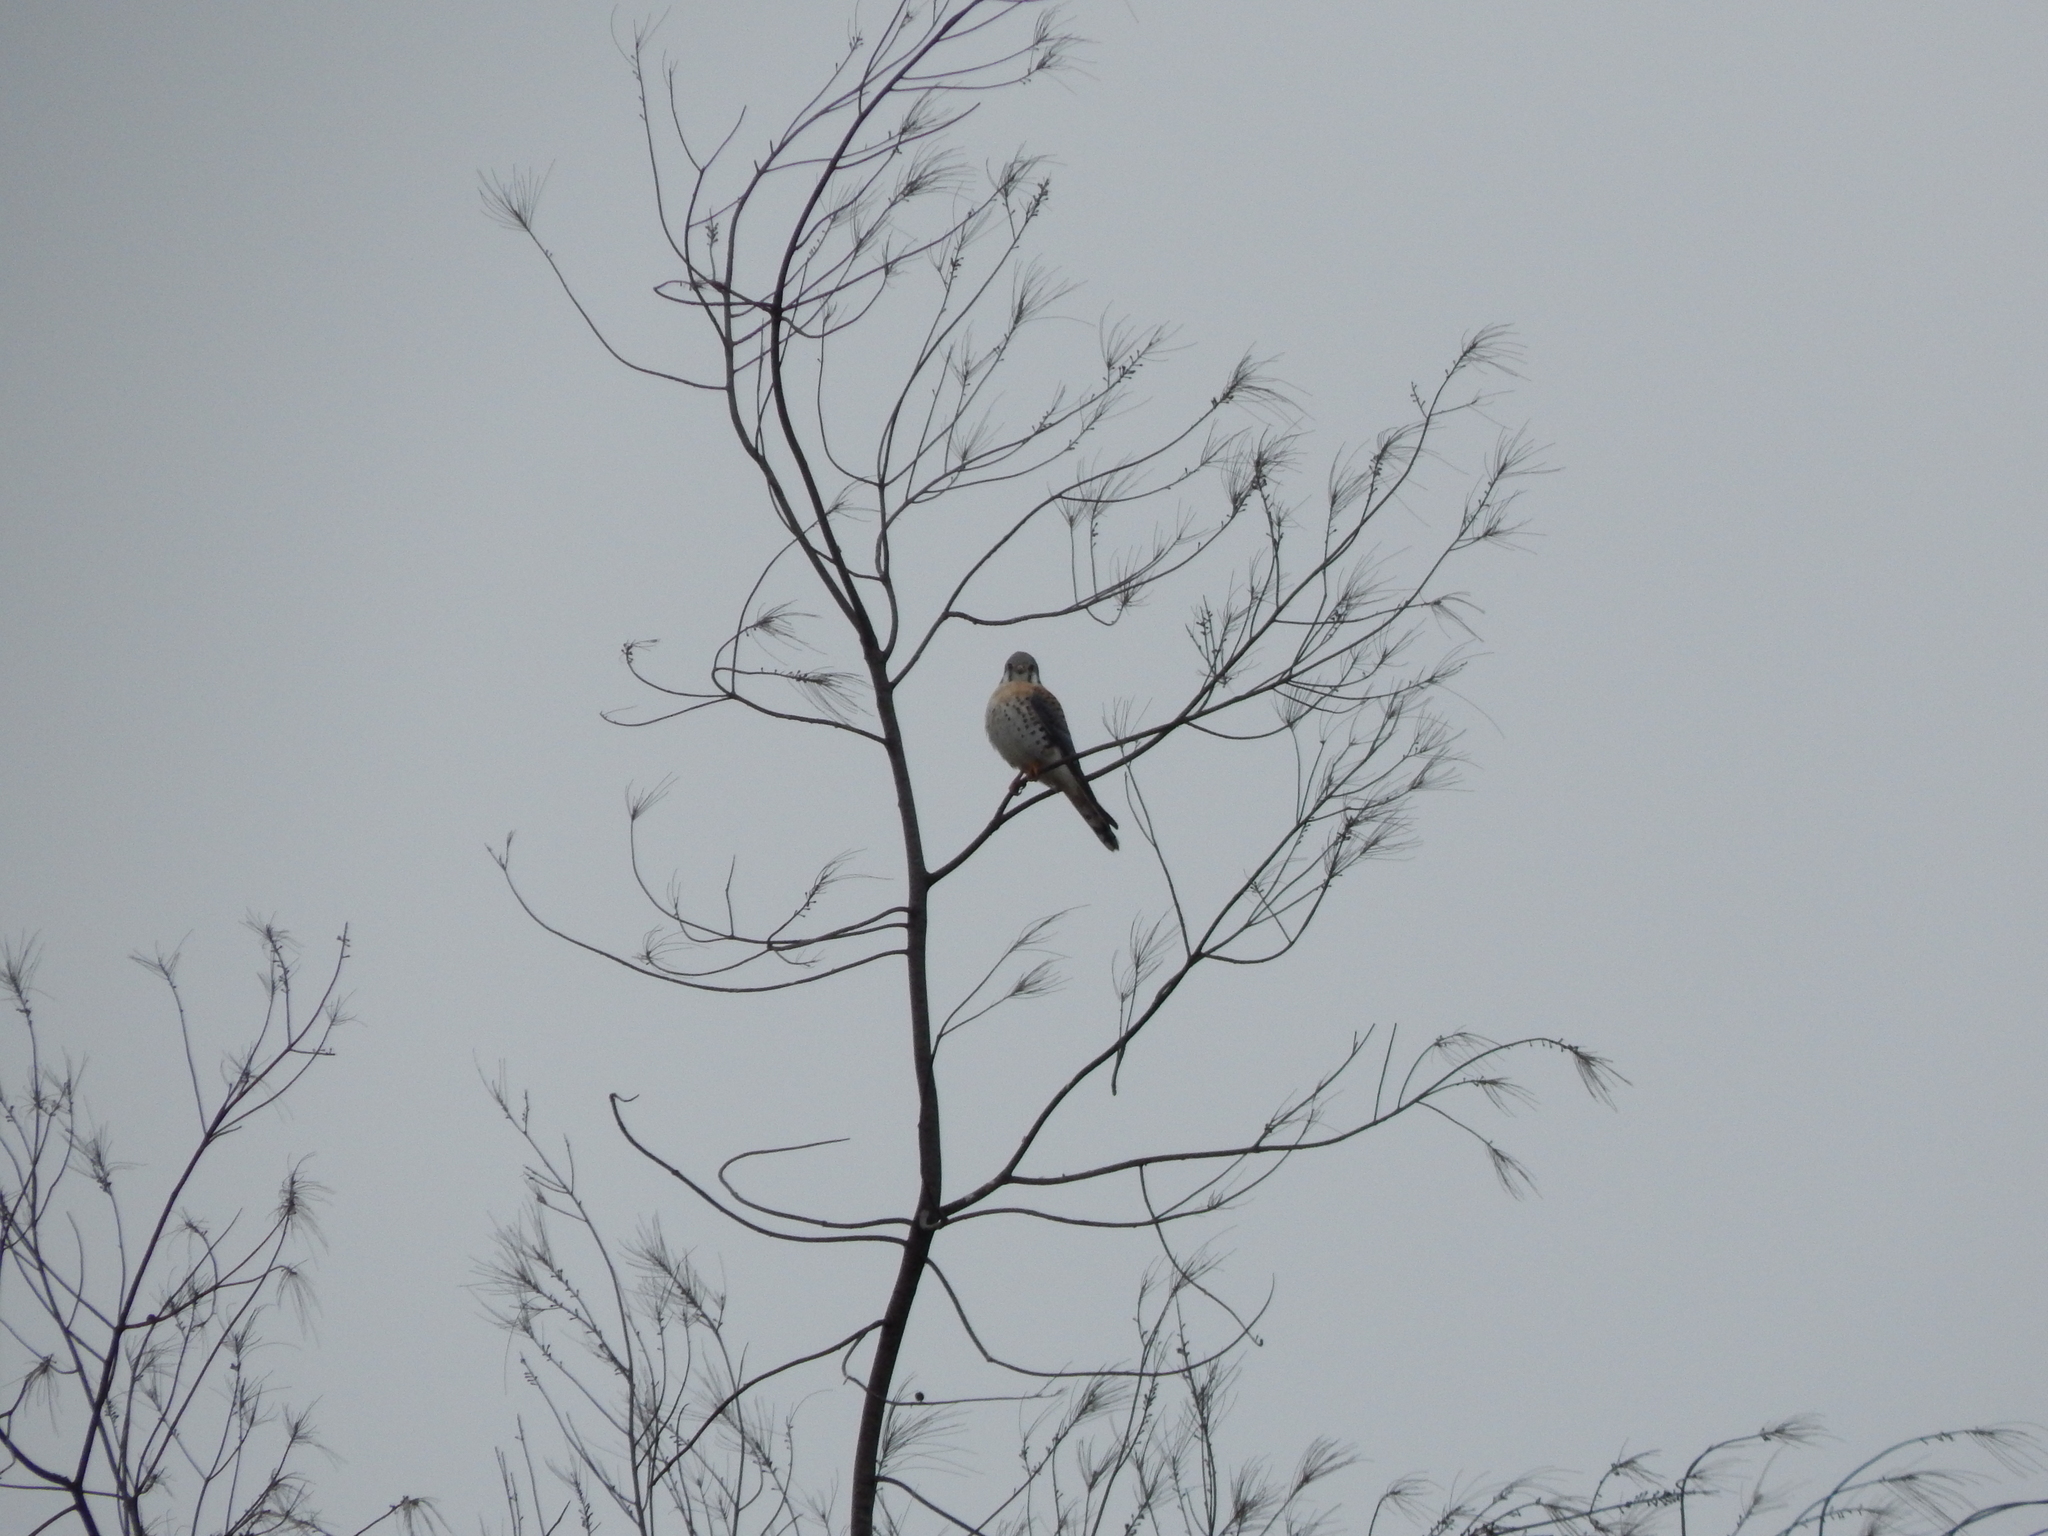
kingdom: Animalia
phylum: Chordata
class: Aves
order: Falconiformes
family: Falconidae
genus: Falco
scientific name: Falco sparverius
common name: American kestrel
